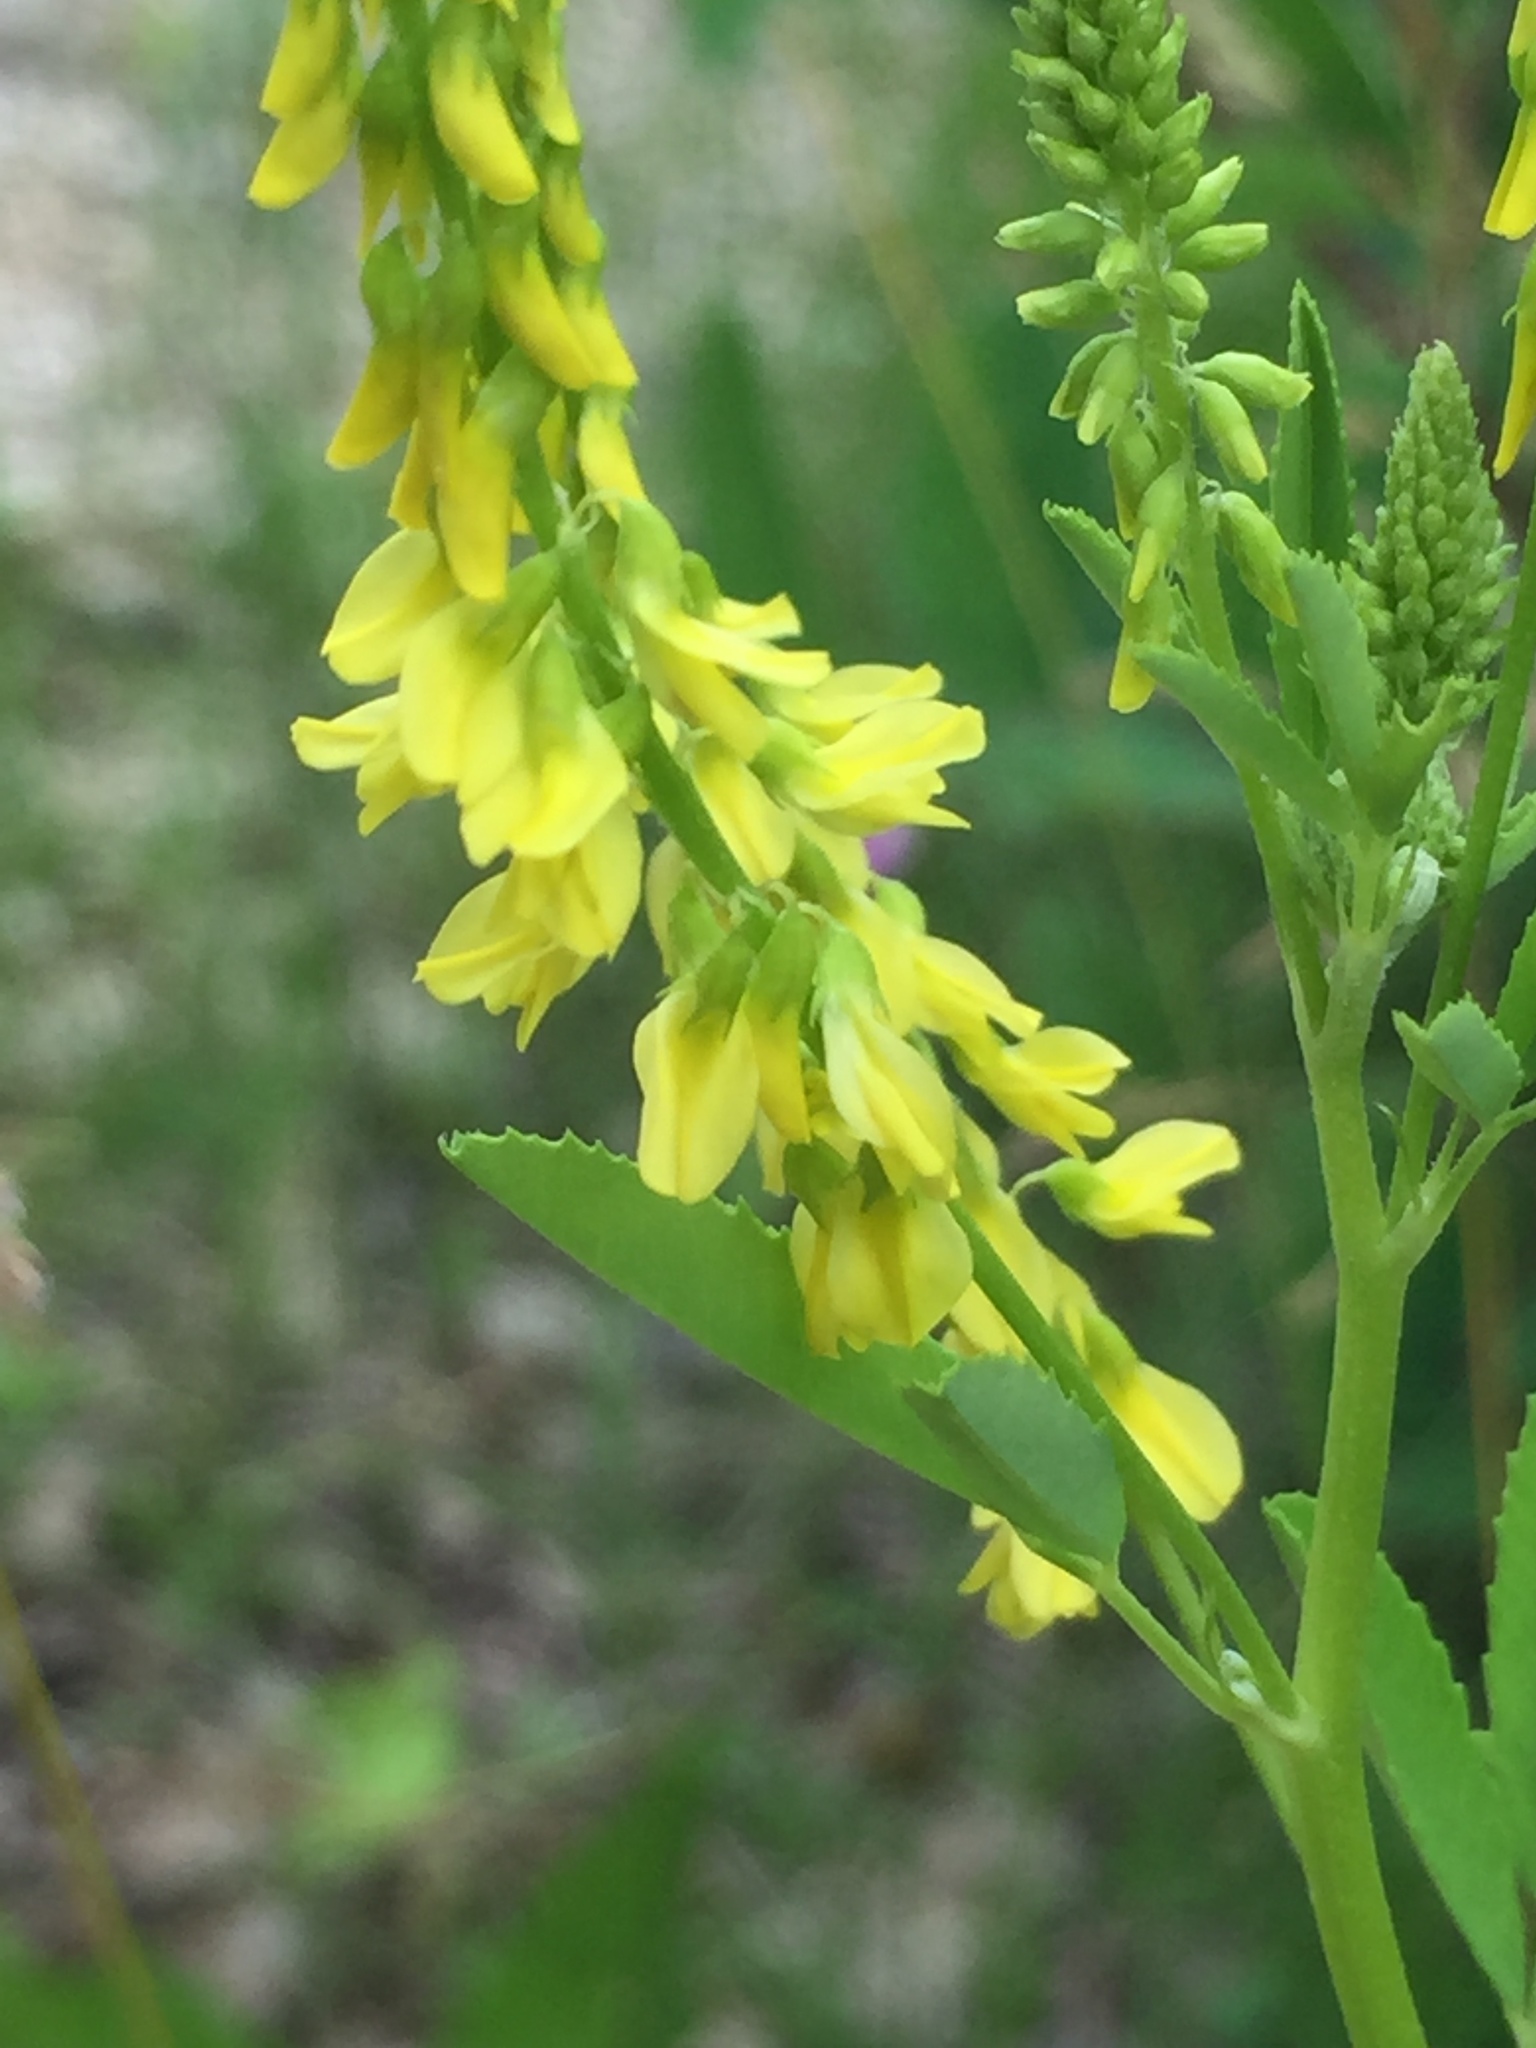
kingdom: Plantae
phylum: Tracheophyta
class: Magnoliopsida
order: Fabales
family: Fabaceae
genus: Melilotus
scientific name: Melilotus officinalis
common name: Sweetclover
